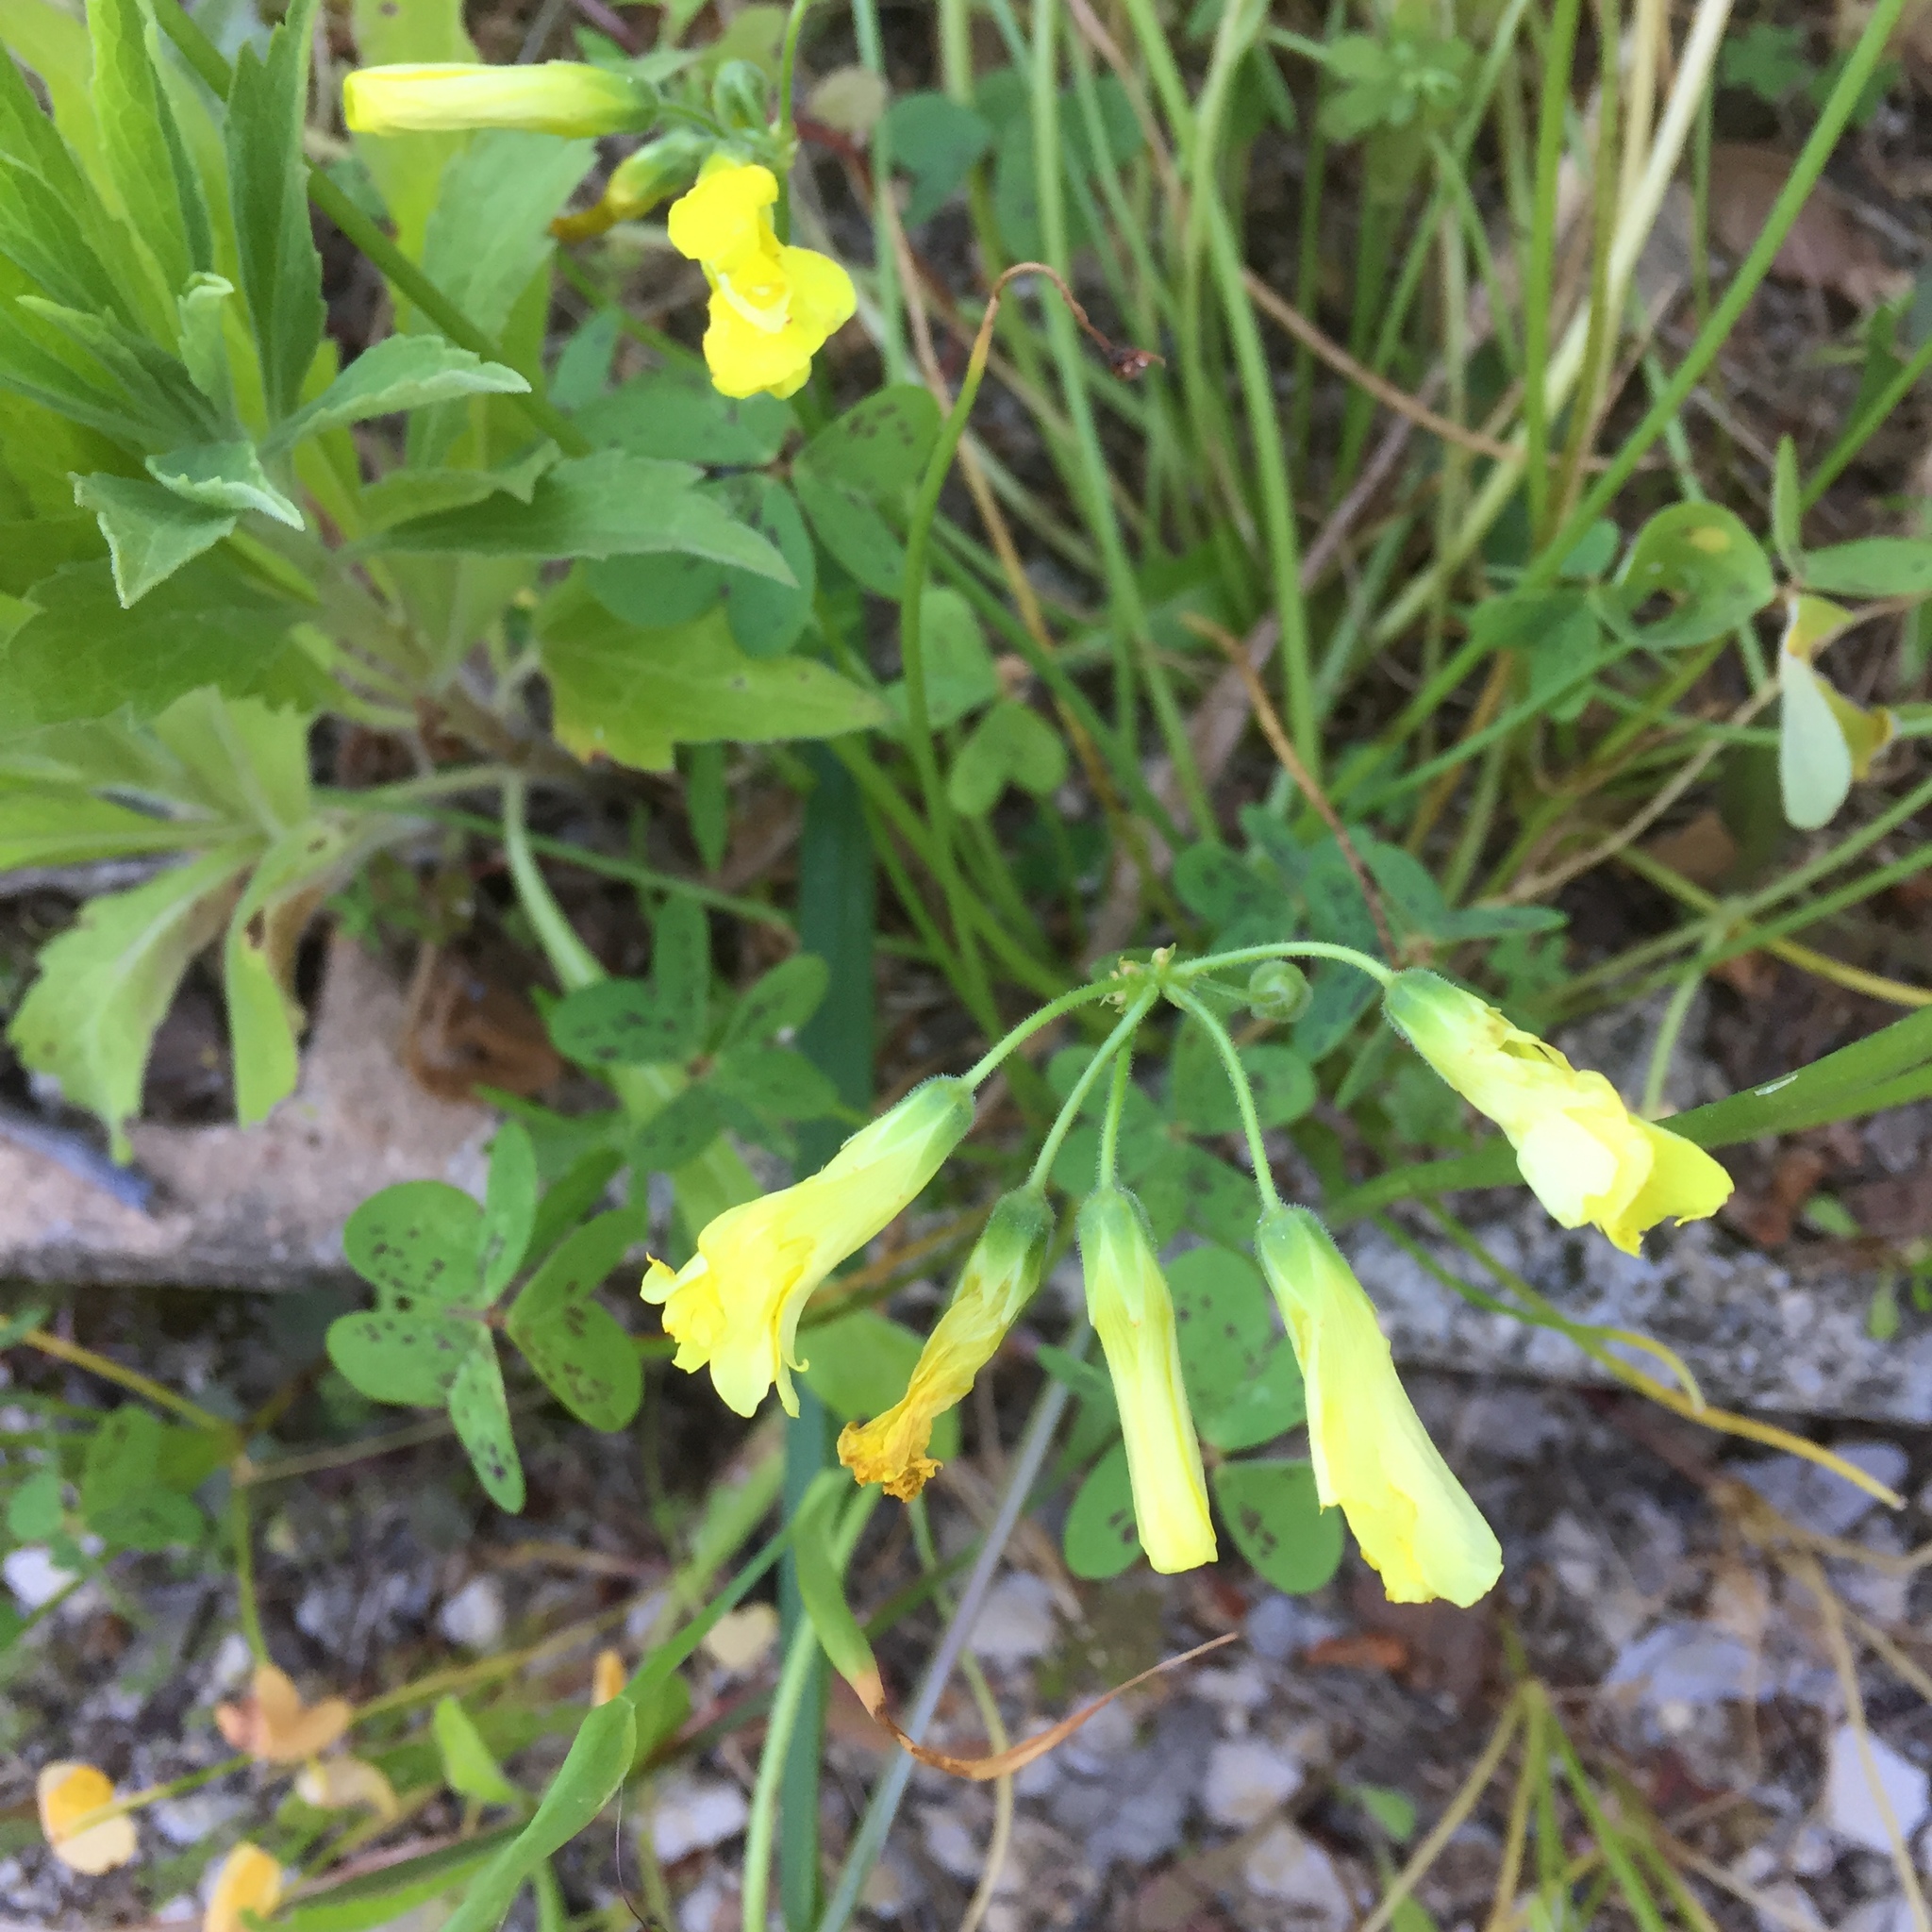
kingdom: Plantae
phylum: Tracheophyta
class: Magnoliopsida
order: Oxalidales
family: Oxalidaceae
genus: Oxalis
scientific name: Oxalis pes-caprae
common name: Bermuda-buttercup
